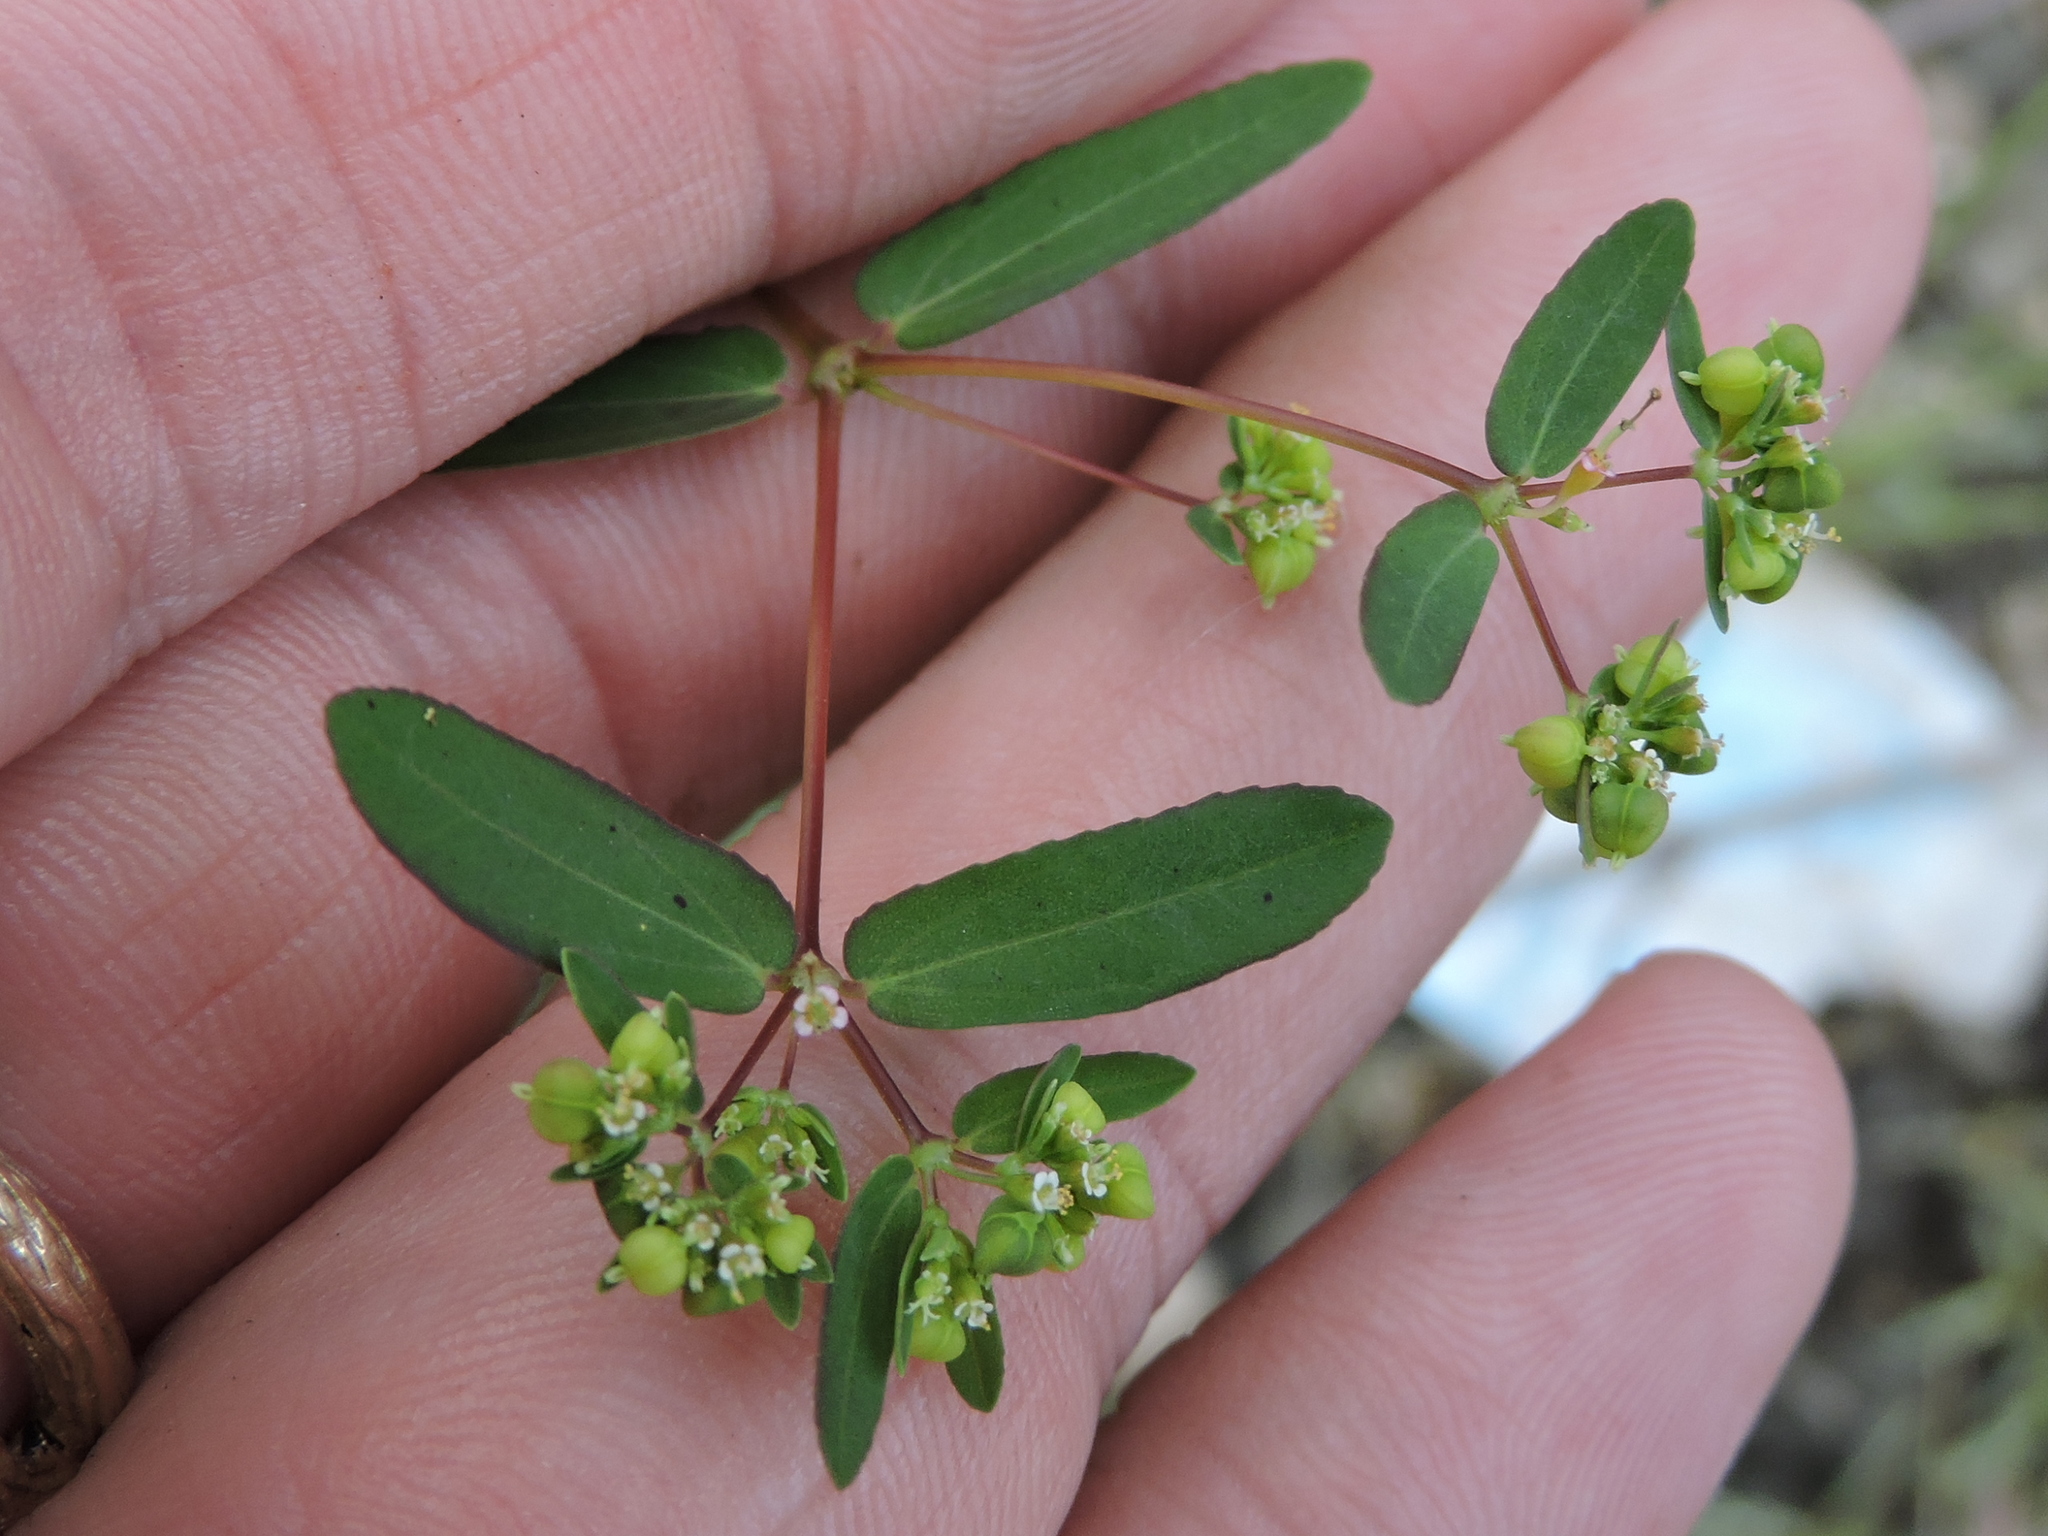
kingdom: Plantae
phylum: Tracheophyta
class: Magnoliopsida
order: Malpighiales
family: Euphorbiaceae
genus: Euphorbia
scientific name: Euphorbia hyssopifolia
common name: Hyssopleaf sandmat
